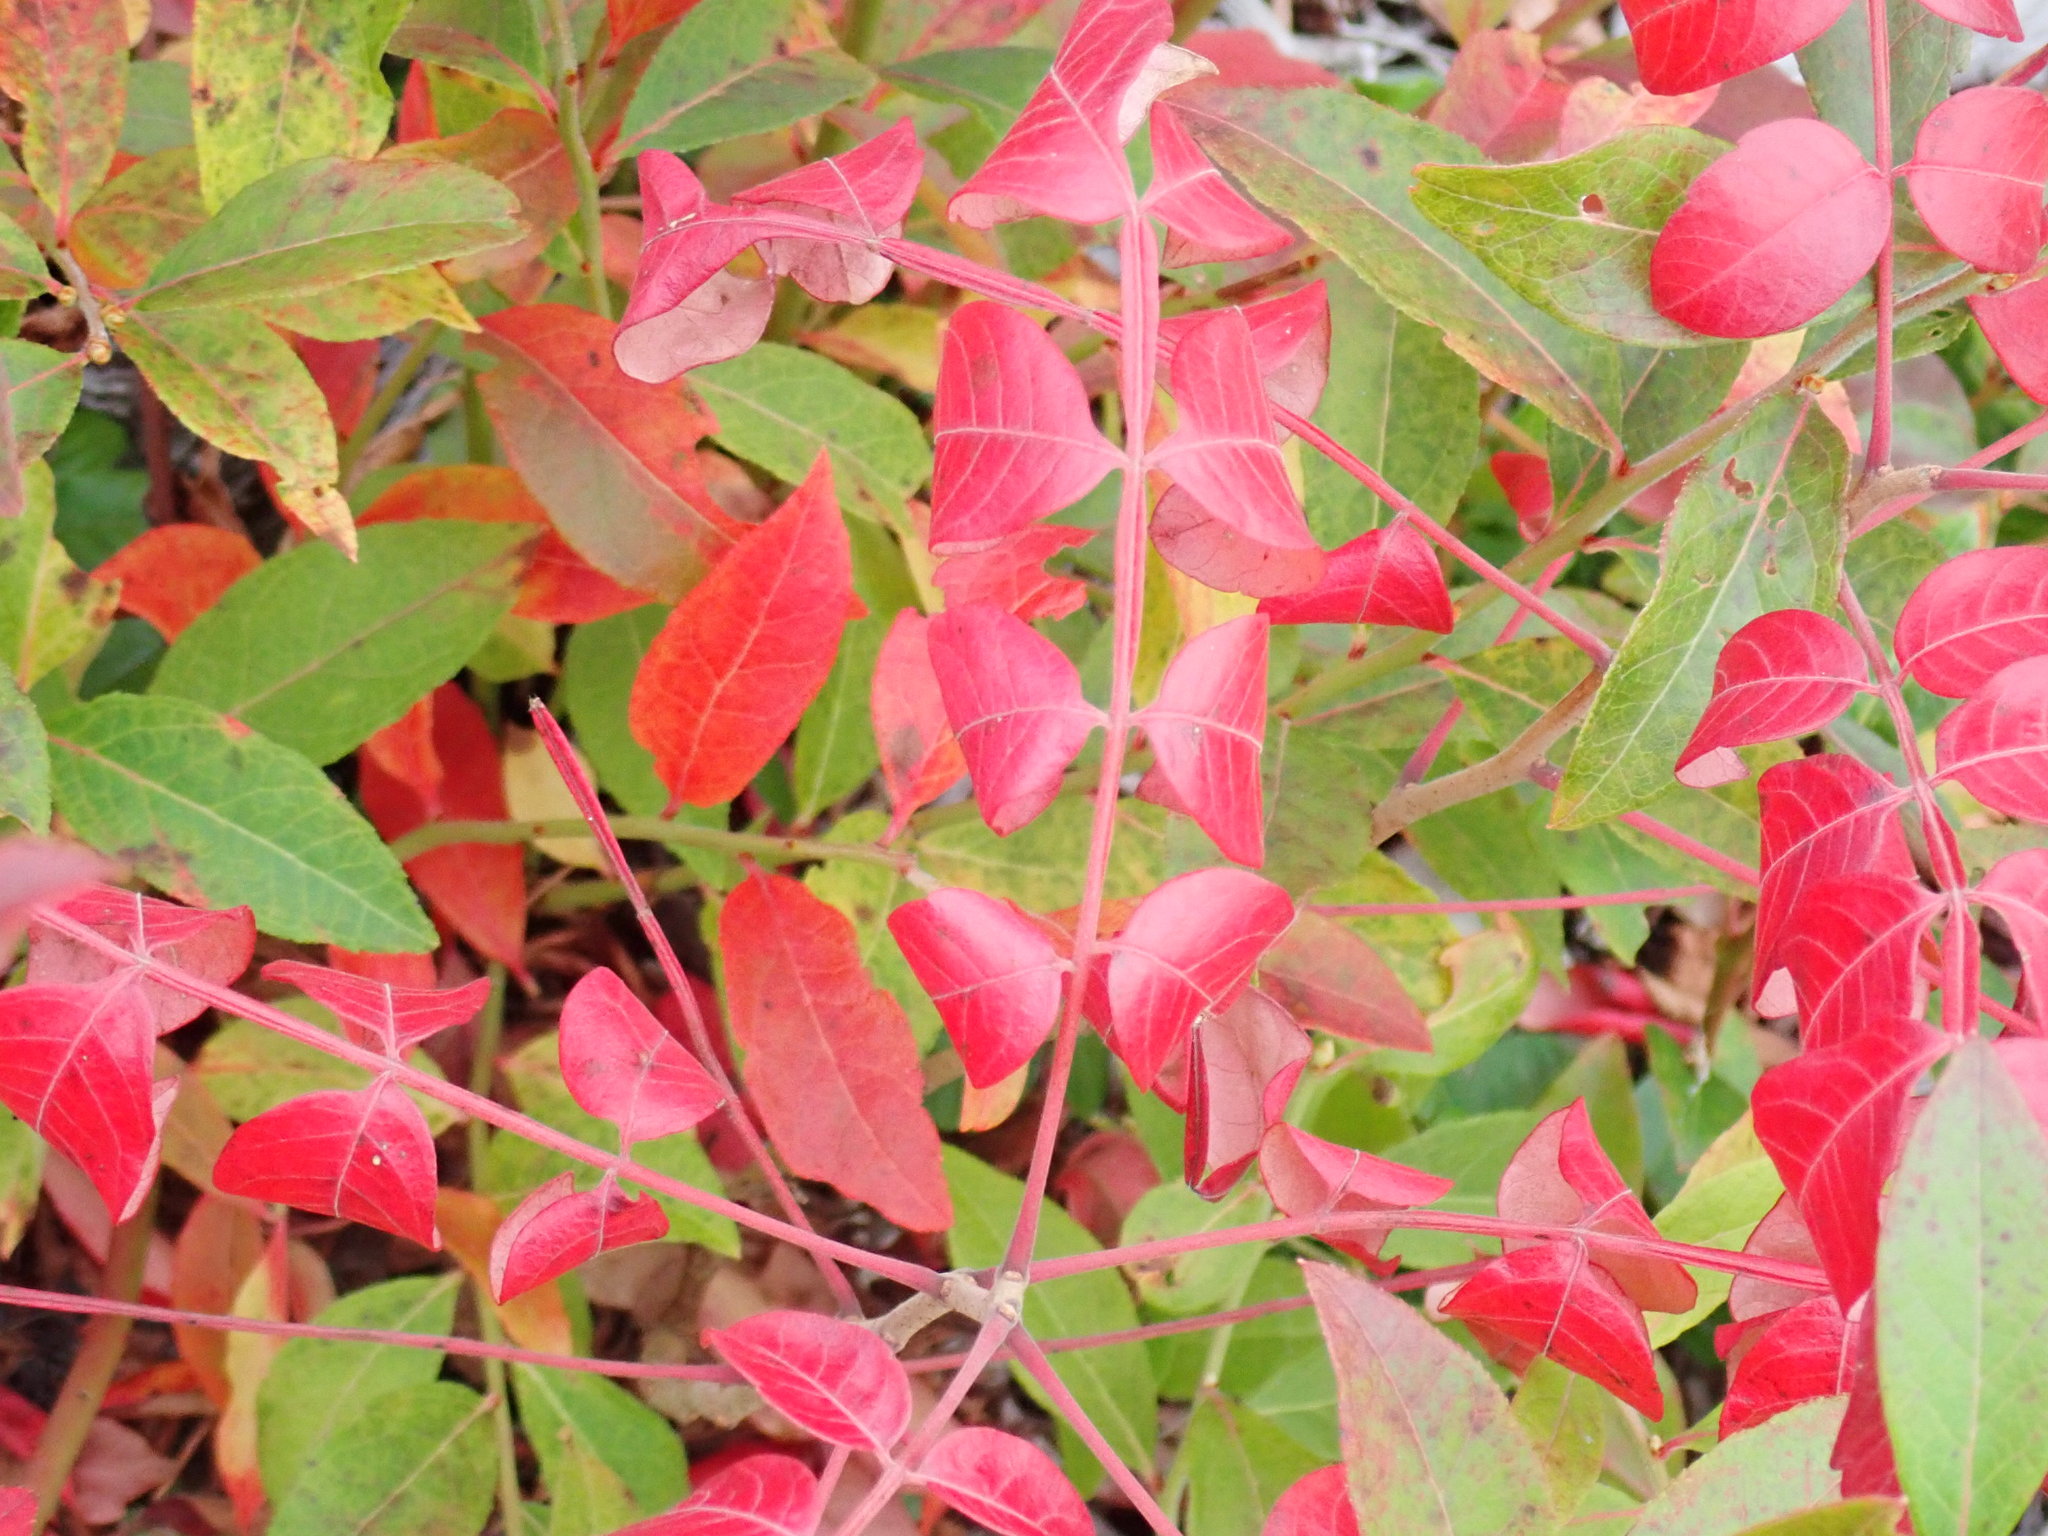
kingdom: Plantae
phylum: Tracheophyta
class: Magnoliopsida
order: Sapindales
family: Anacardiaceae
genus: Rhus
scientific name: Rhus copallina
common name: Shining sumac
